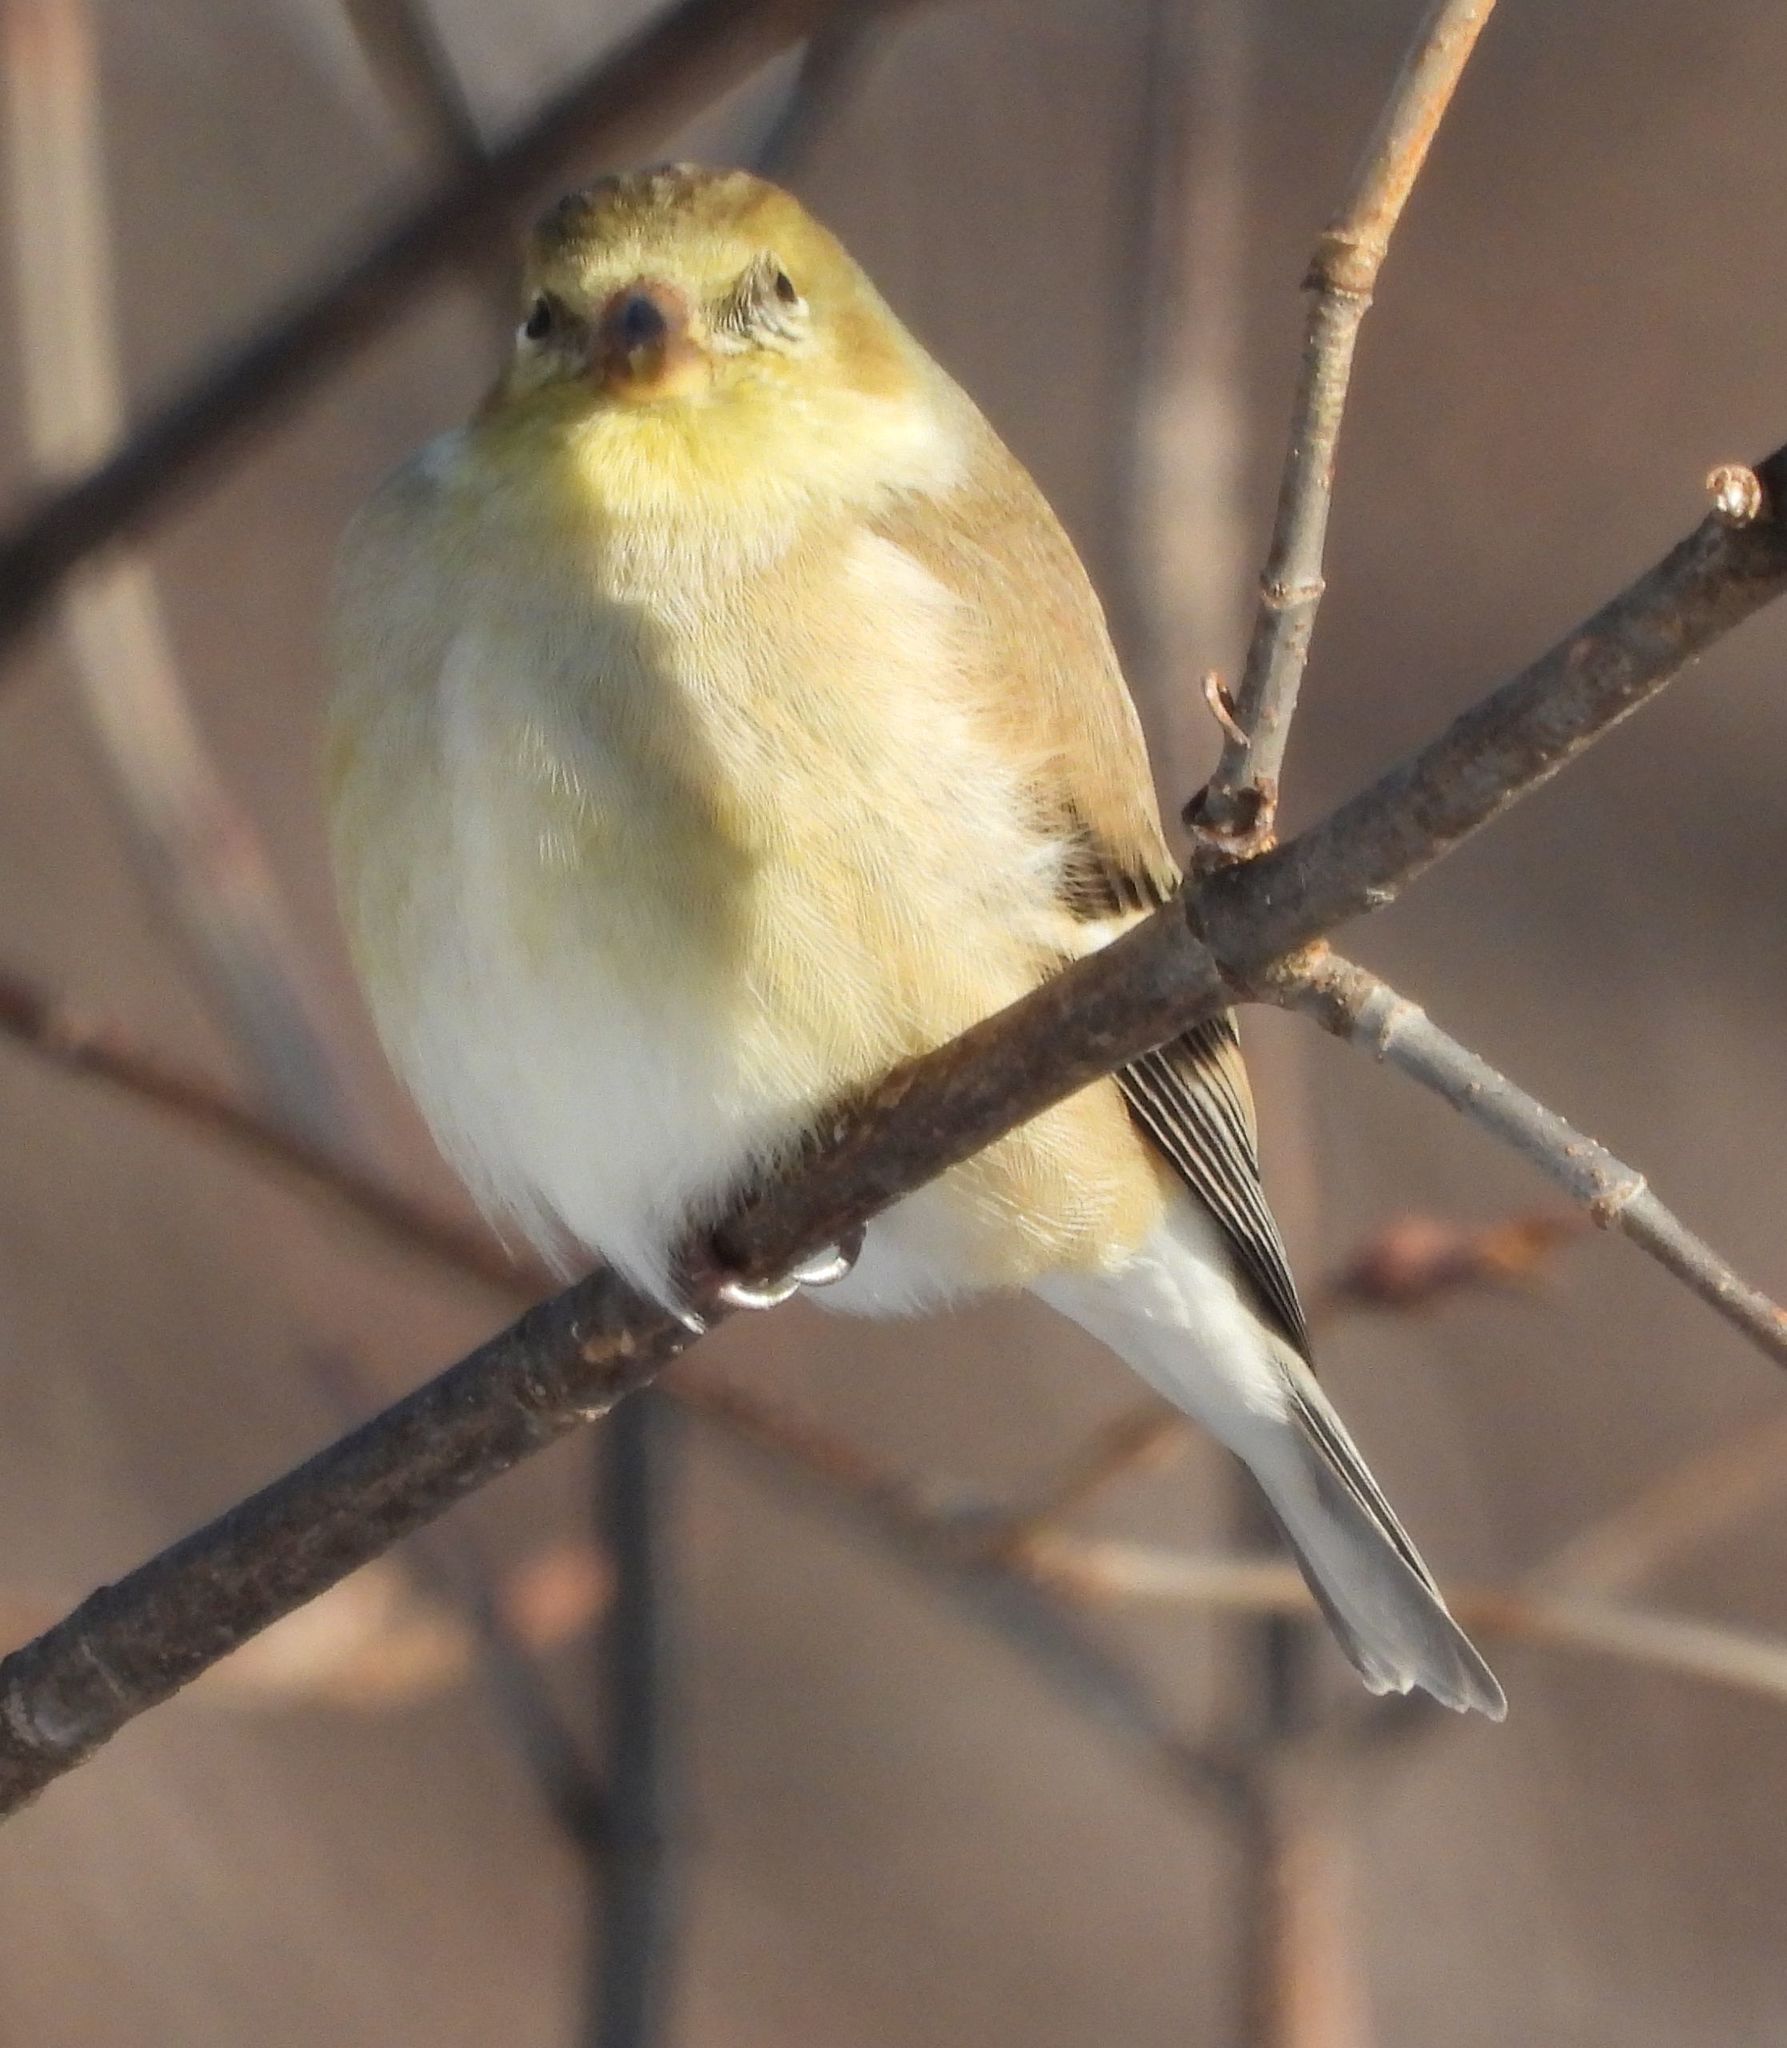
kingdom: Animalia
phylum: Chordata
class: Aves
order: Passeriformes
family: Fringillidae
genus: Spinus
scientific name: Spinus tristis
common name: American goldfinch
